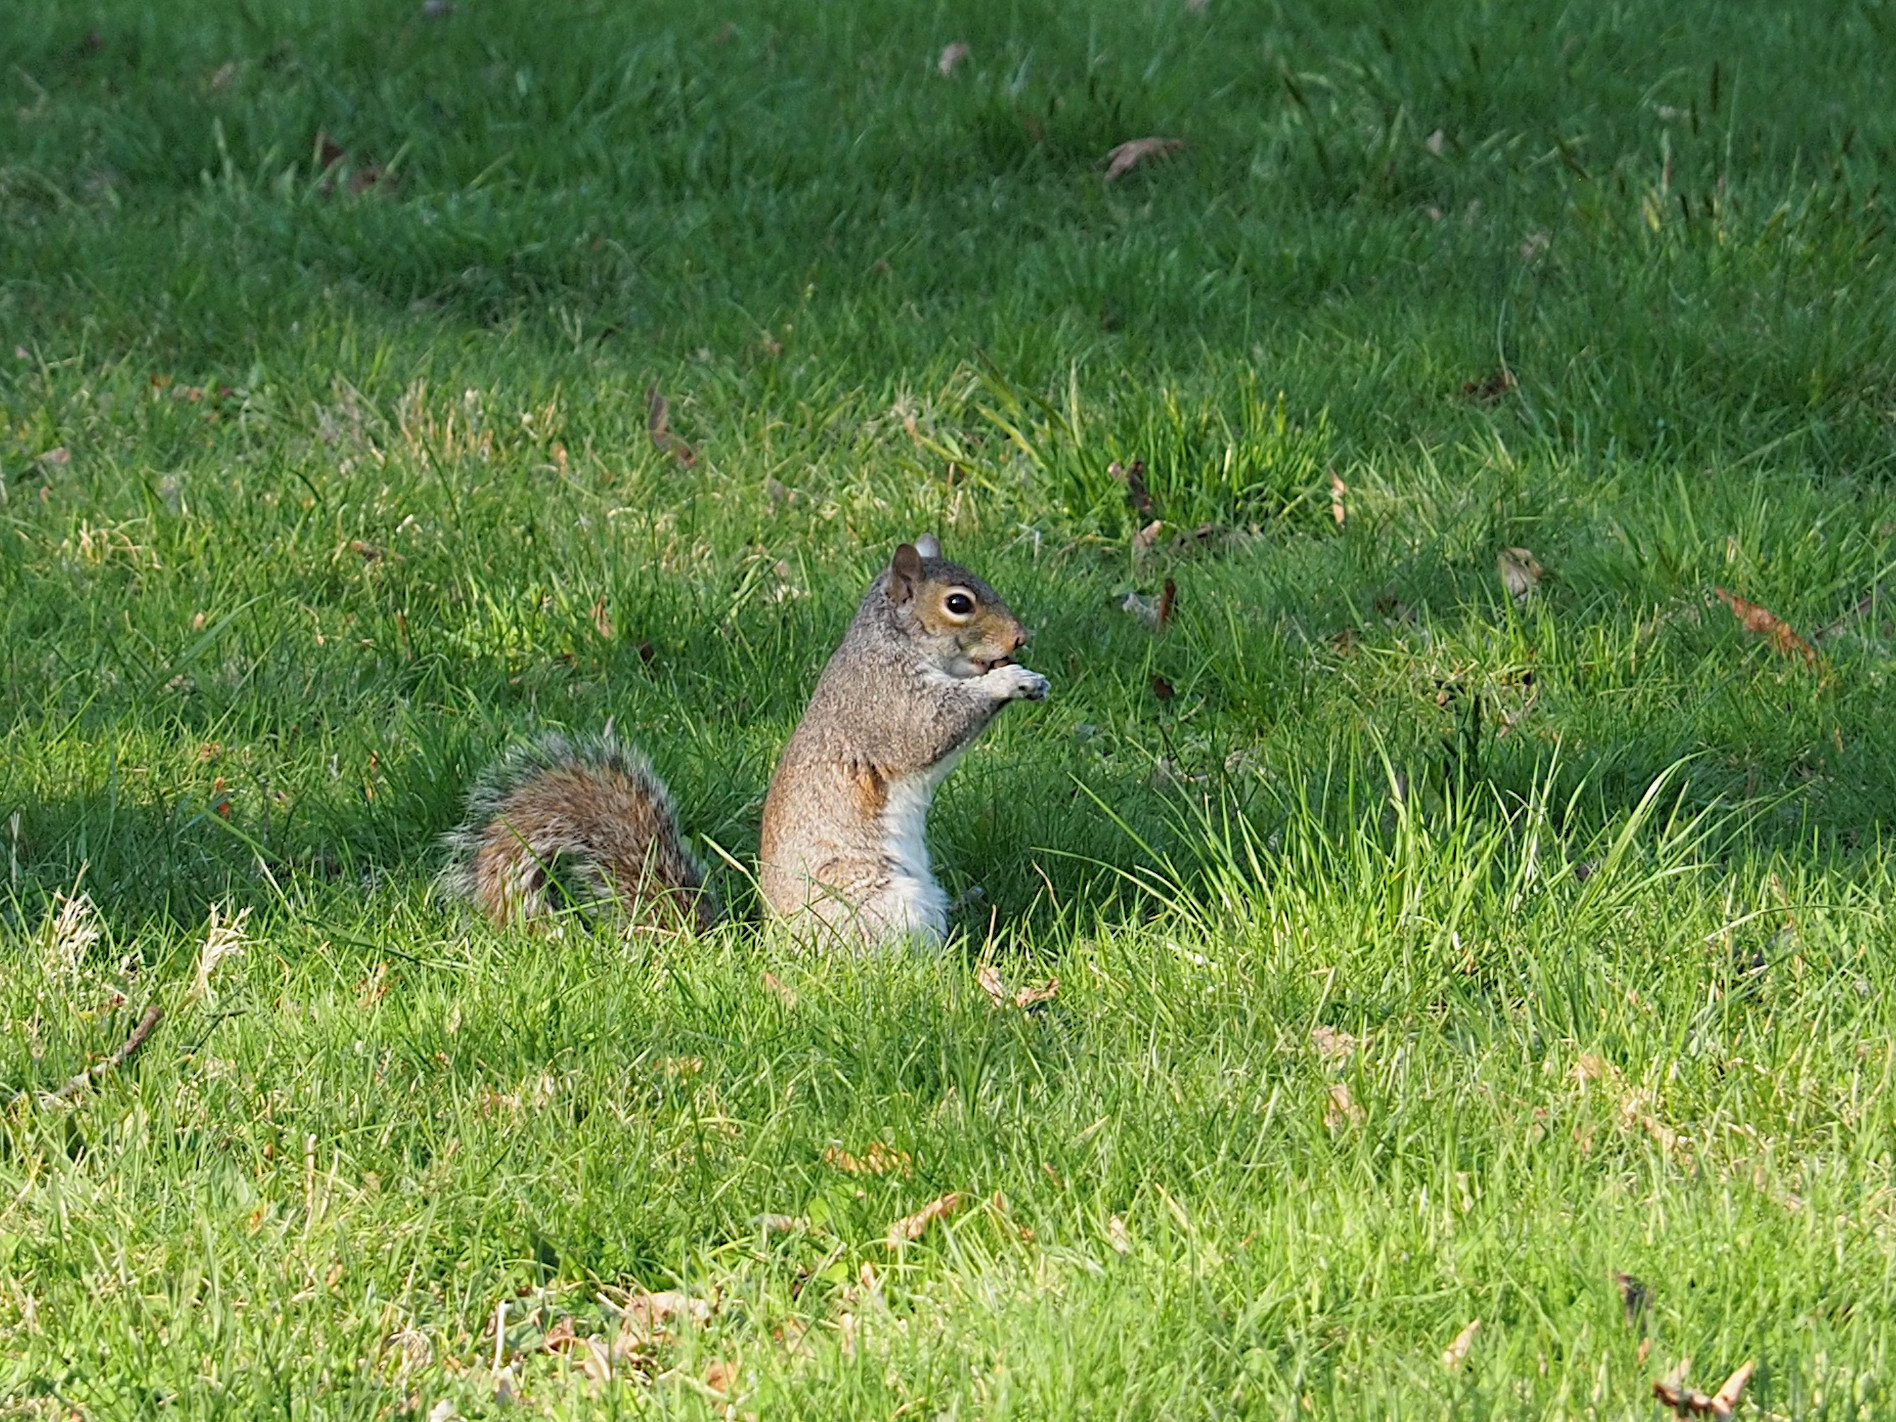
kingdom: Animalia
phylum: Chordata
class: Mammalia
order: Rodentia
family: Sciuridae
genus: Sciurus
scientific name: Sciurus carolinensis
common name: Eastern gray squirrel
